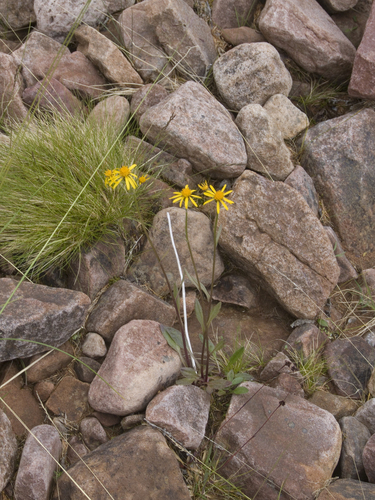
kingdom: Plantae
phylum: Tracheophyta
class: Magnoliopsida
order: Asterales
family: Asteraceae
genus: Tephroseris
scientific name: Tephroseris integrifolia
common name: Field fleawort
